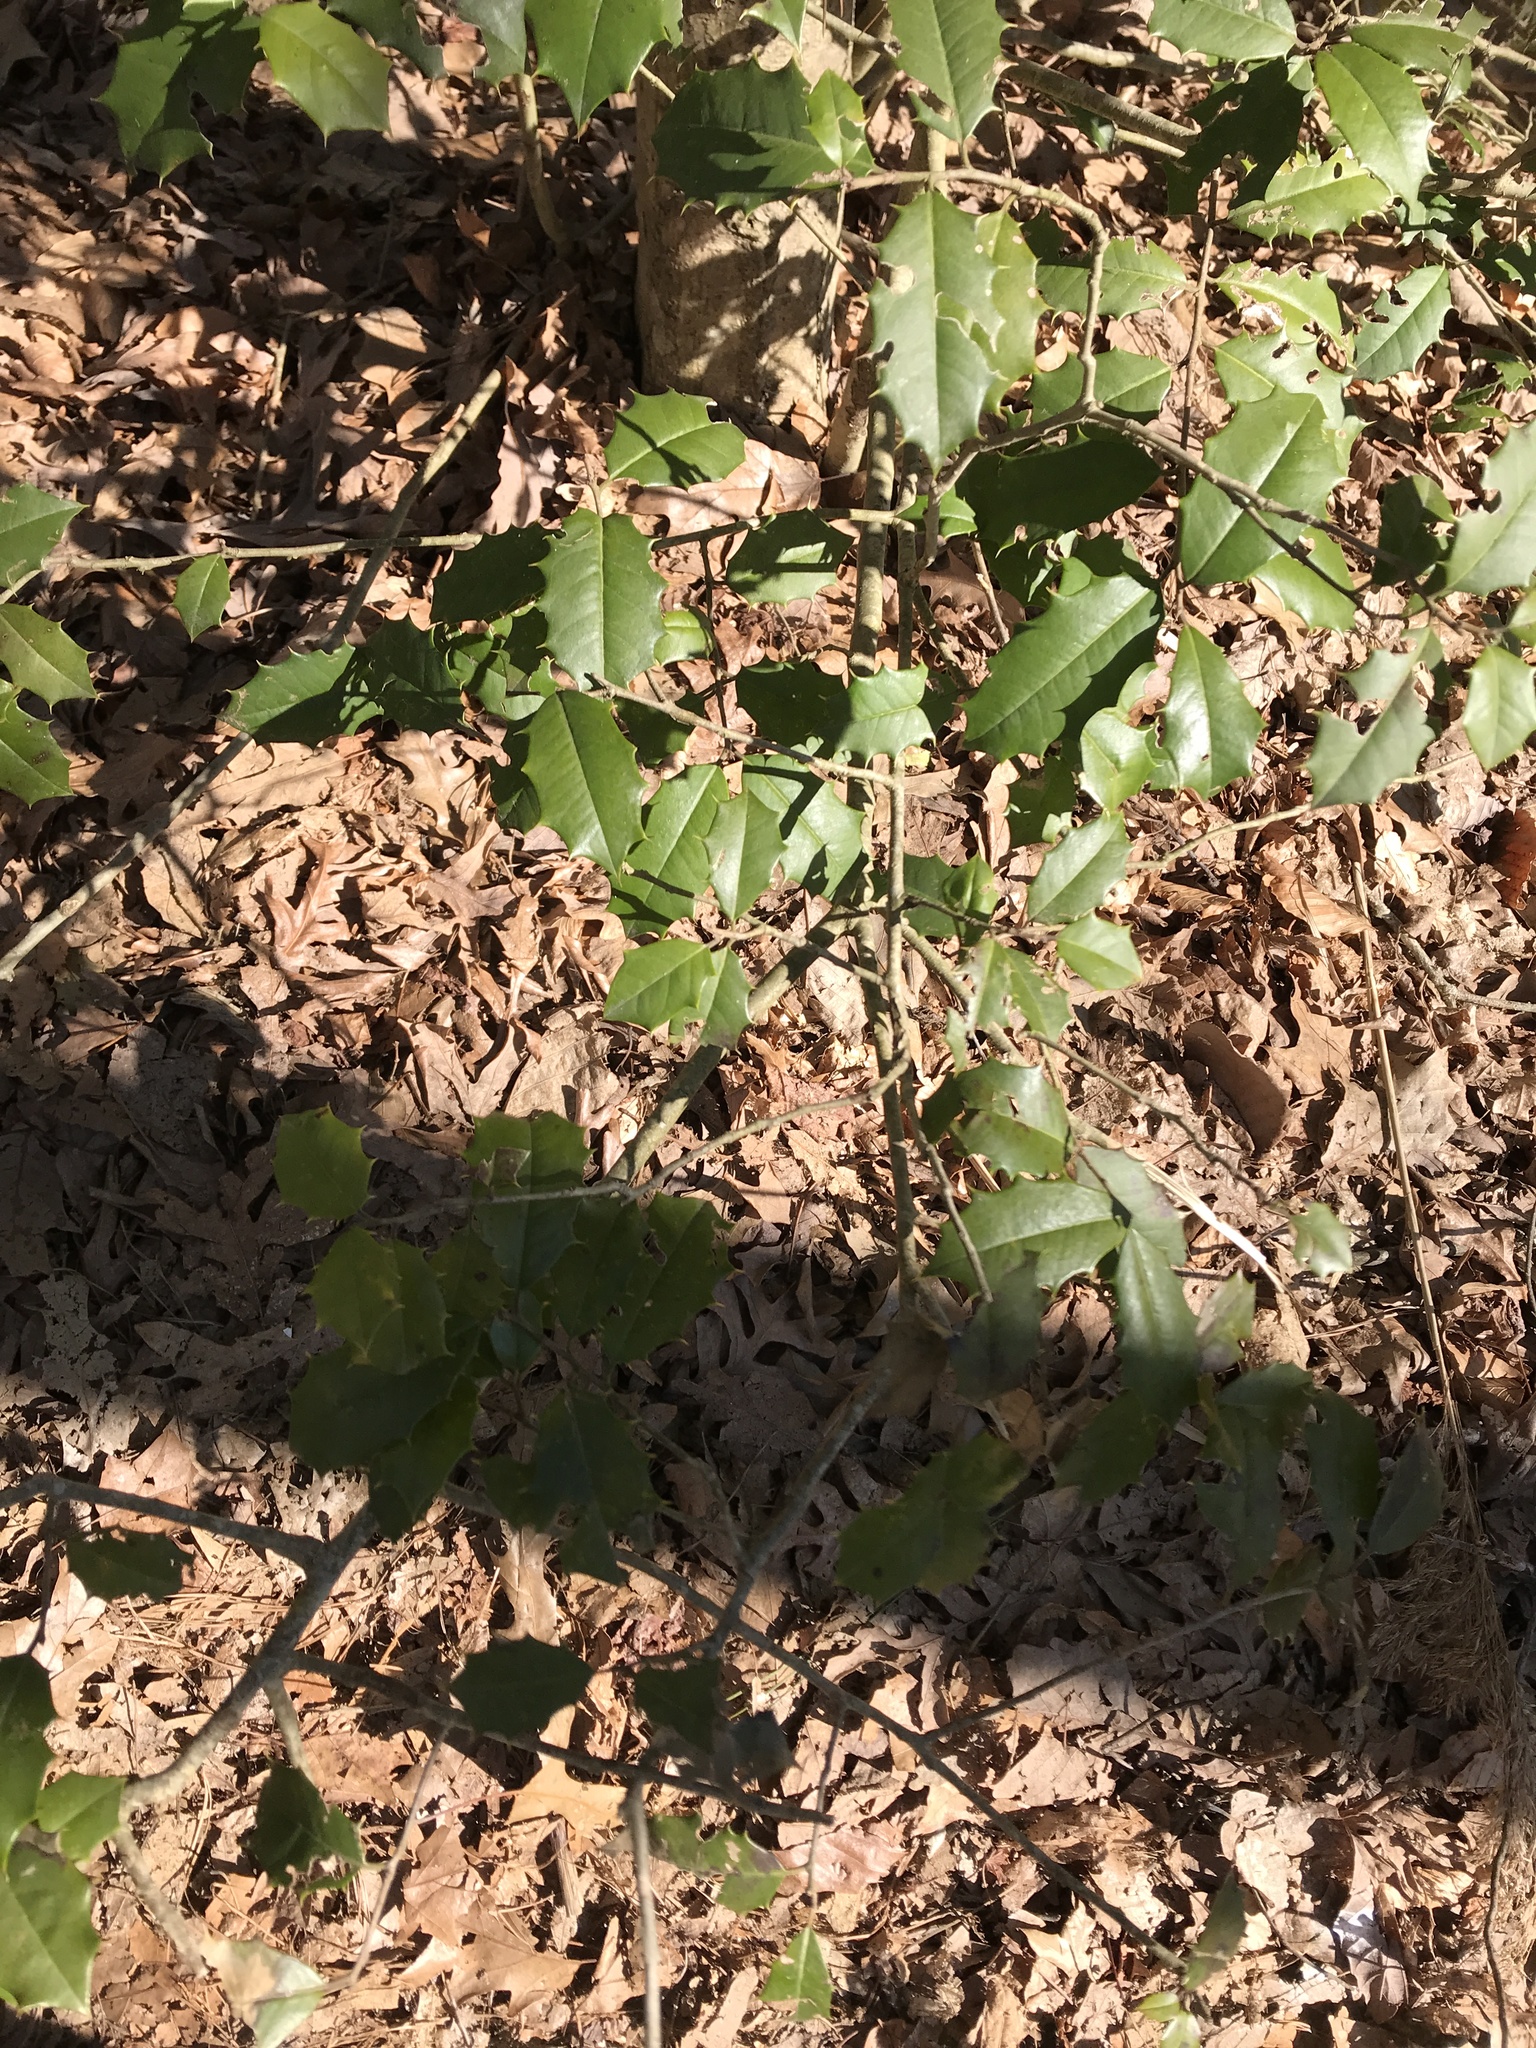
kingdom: Plantae
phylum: Tracheophyta
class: Magnoliopsida
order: Aquifoliales
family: Aquifoliaceae
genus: Ilex
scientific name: Ilex opaca
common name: American holly
